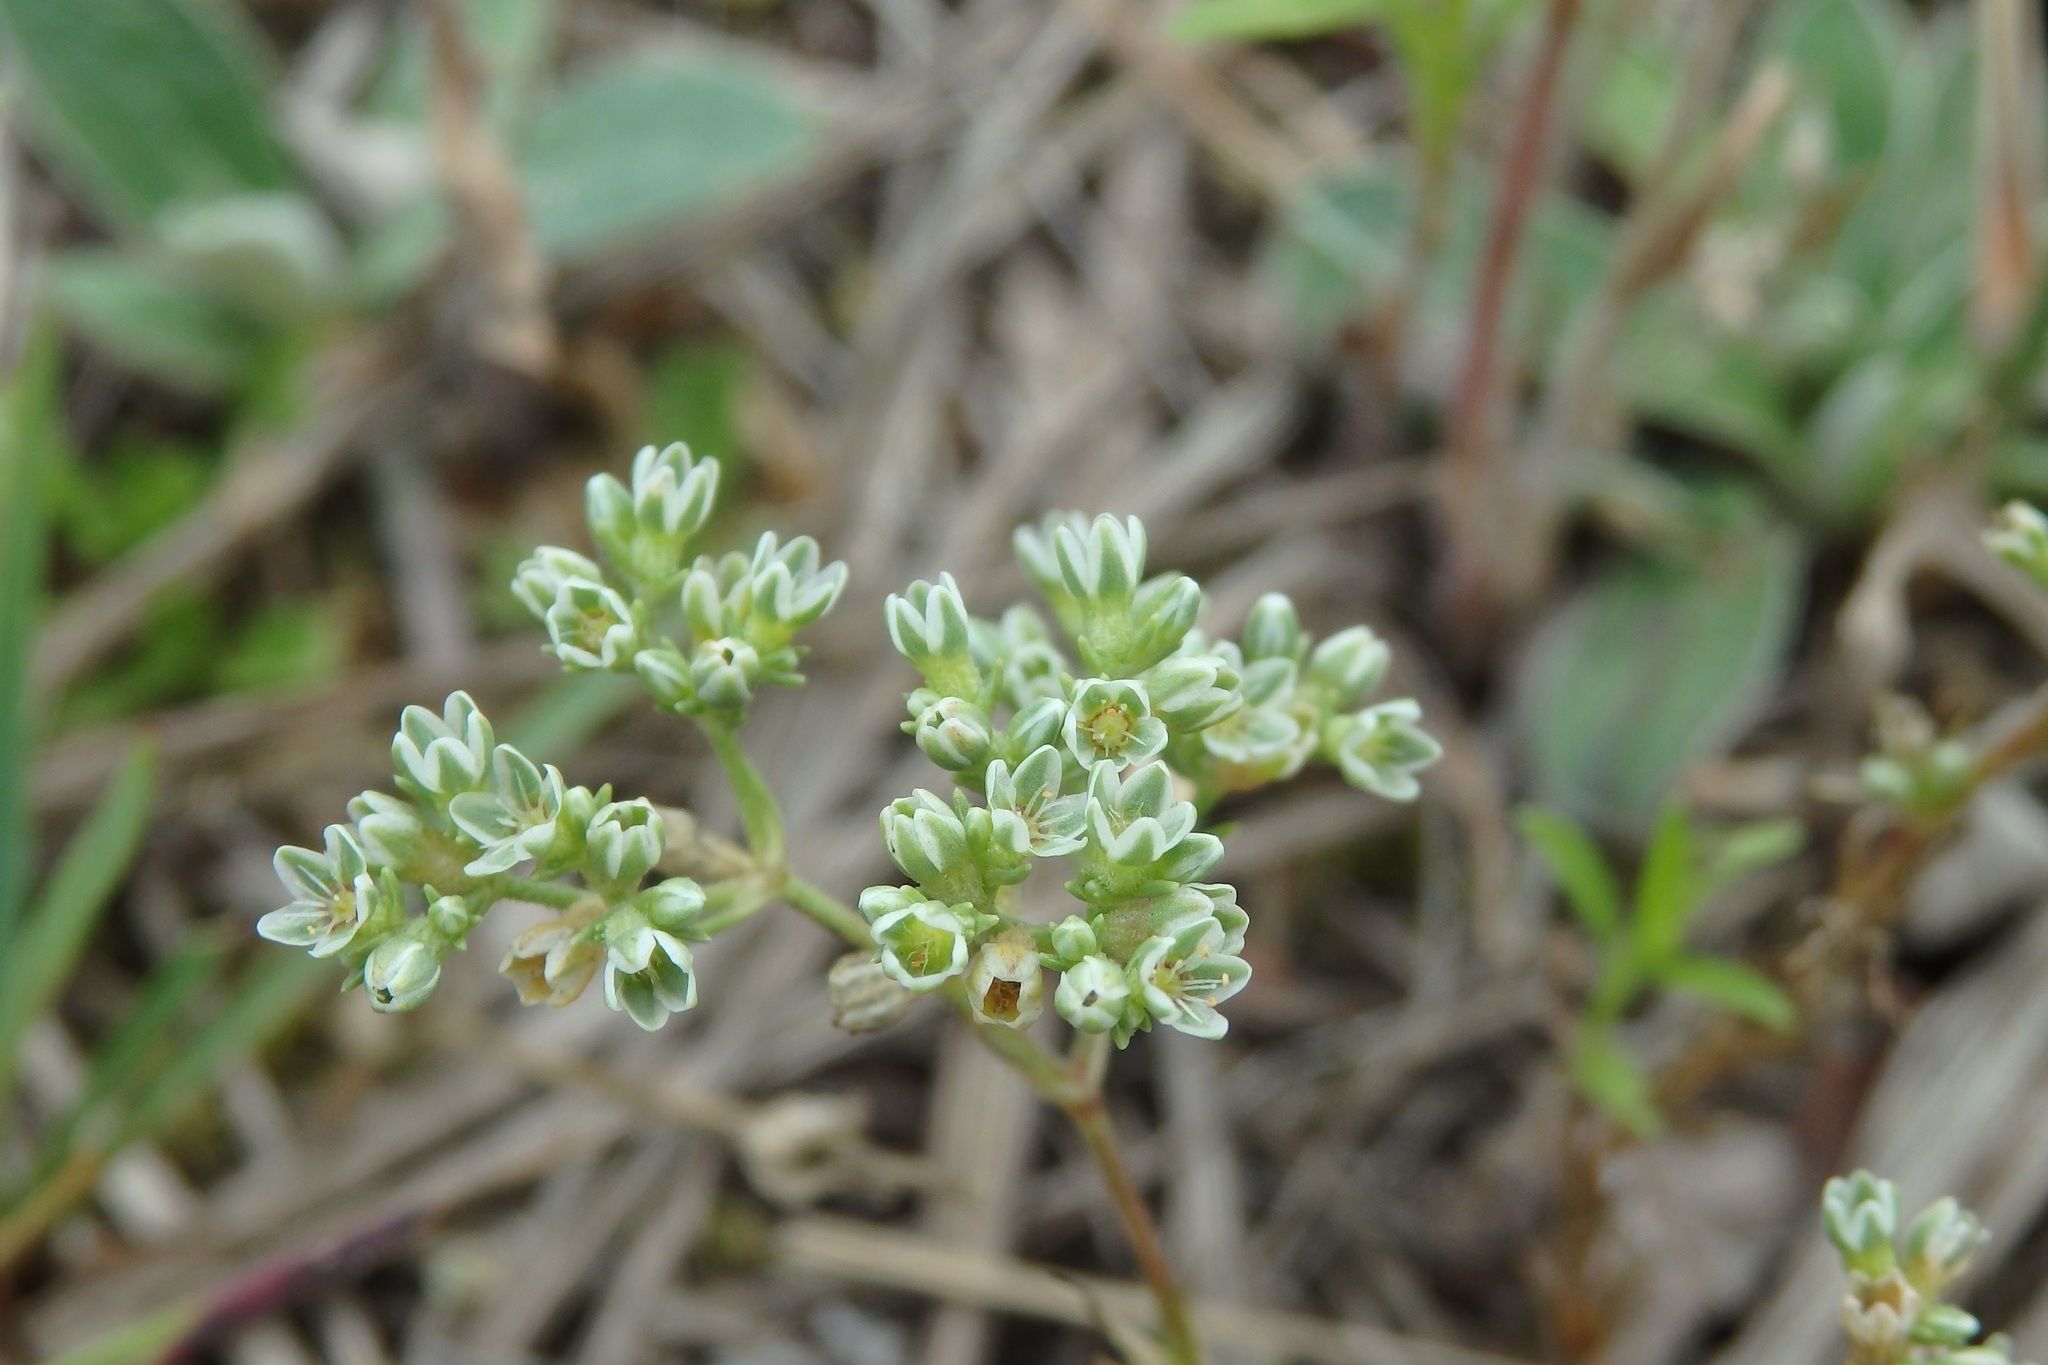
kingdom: Plantae
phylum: Tracheophyta
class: Magnoliopsida
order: Caryophyllales
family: Caryophyllaceae
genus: Scleranthus
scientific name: Scleranthus perennis
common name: Perennial knawel
